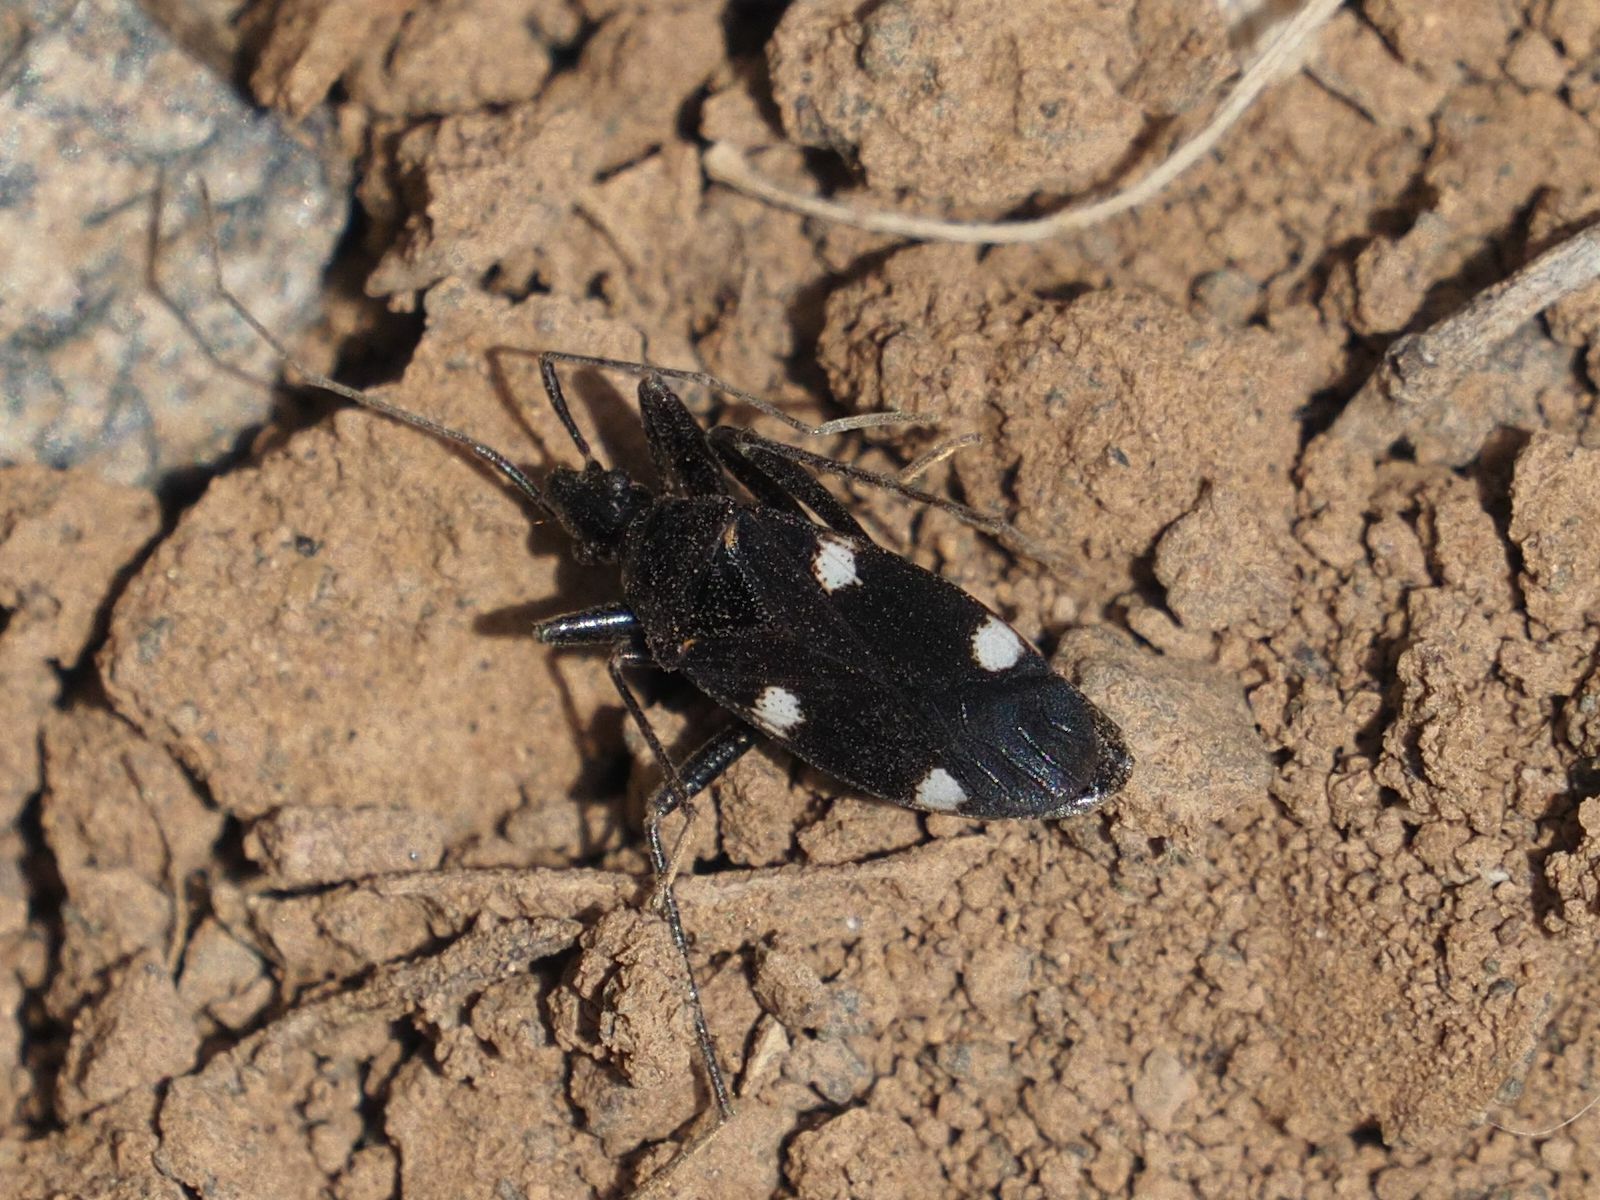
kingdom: Animalia
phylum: Arthropoda
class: Insecta
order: Hemiptera
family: Rhyparochromidae
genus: Noualhieria
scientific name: Noualhieria quadripunctata
